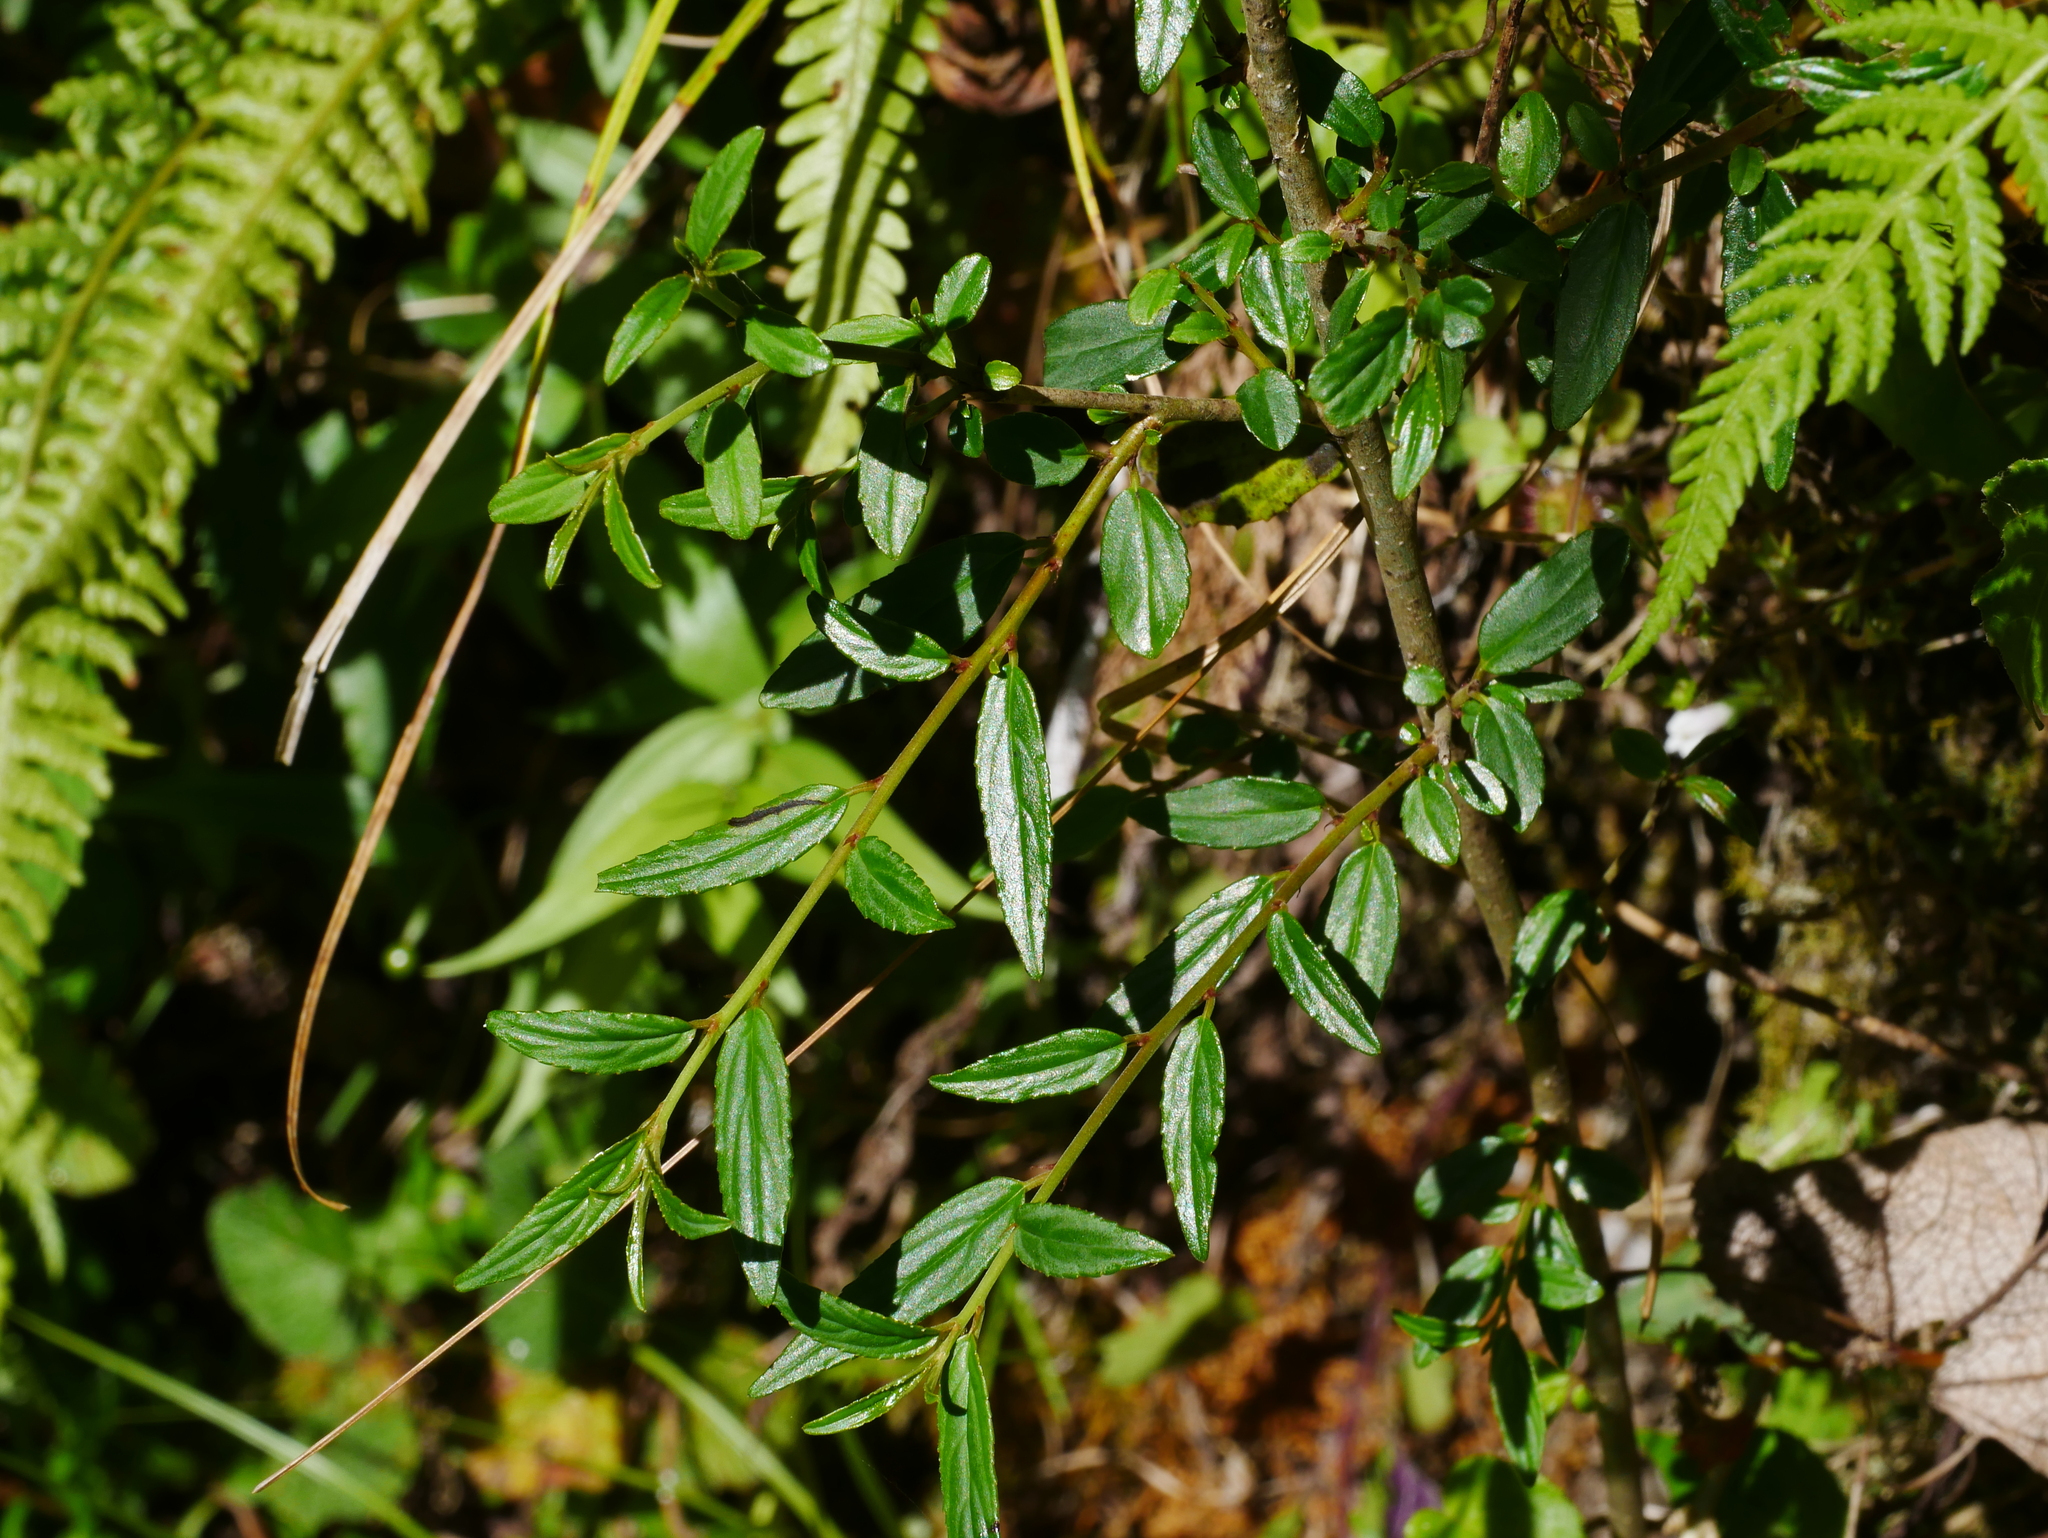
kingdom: Plantae
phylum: Tracheophyta
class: Magnoliopsida
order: Rosales
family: Rhamnaceae
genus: Rhamnus
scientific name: Rhamnus pilushanensis
